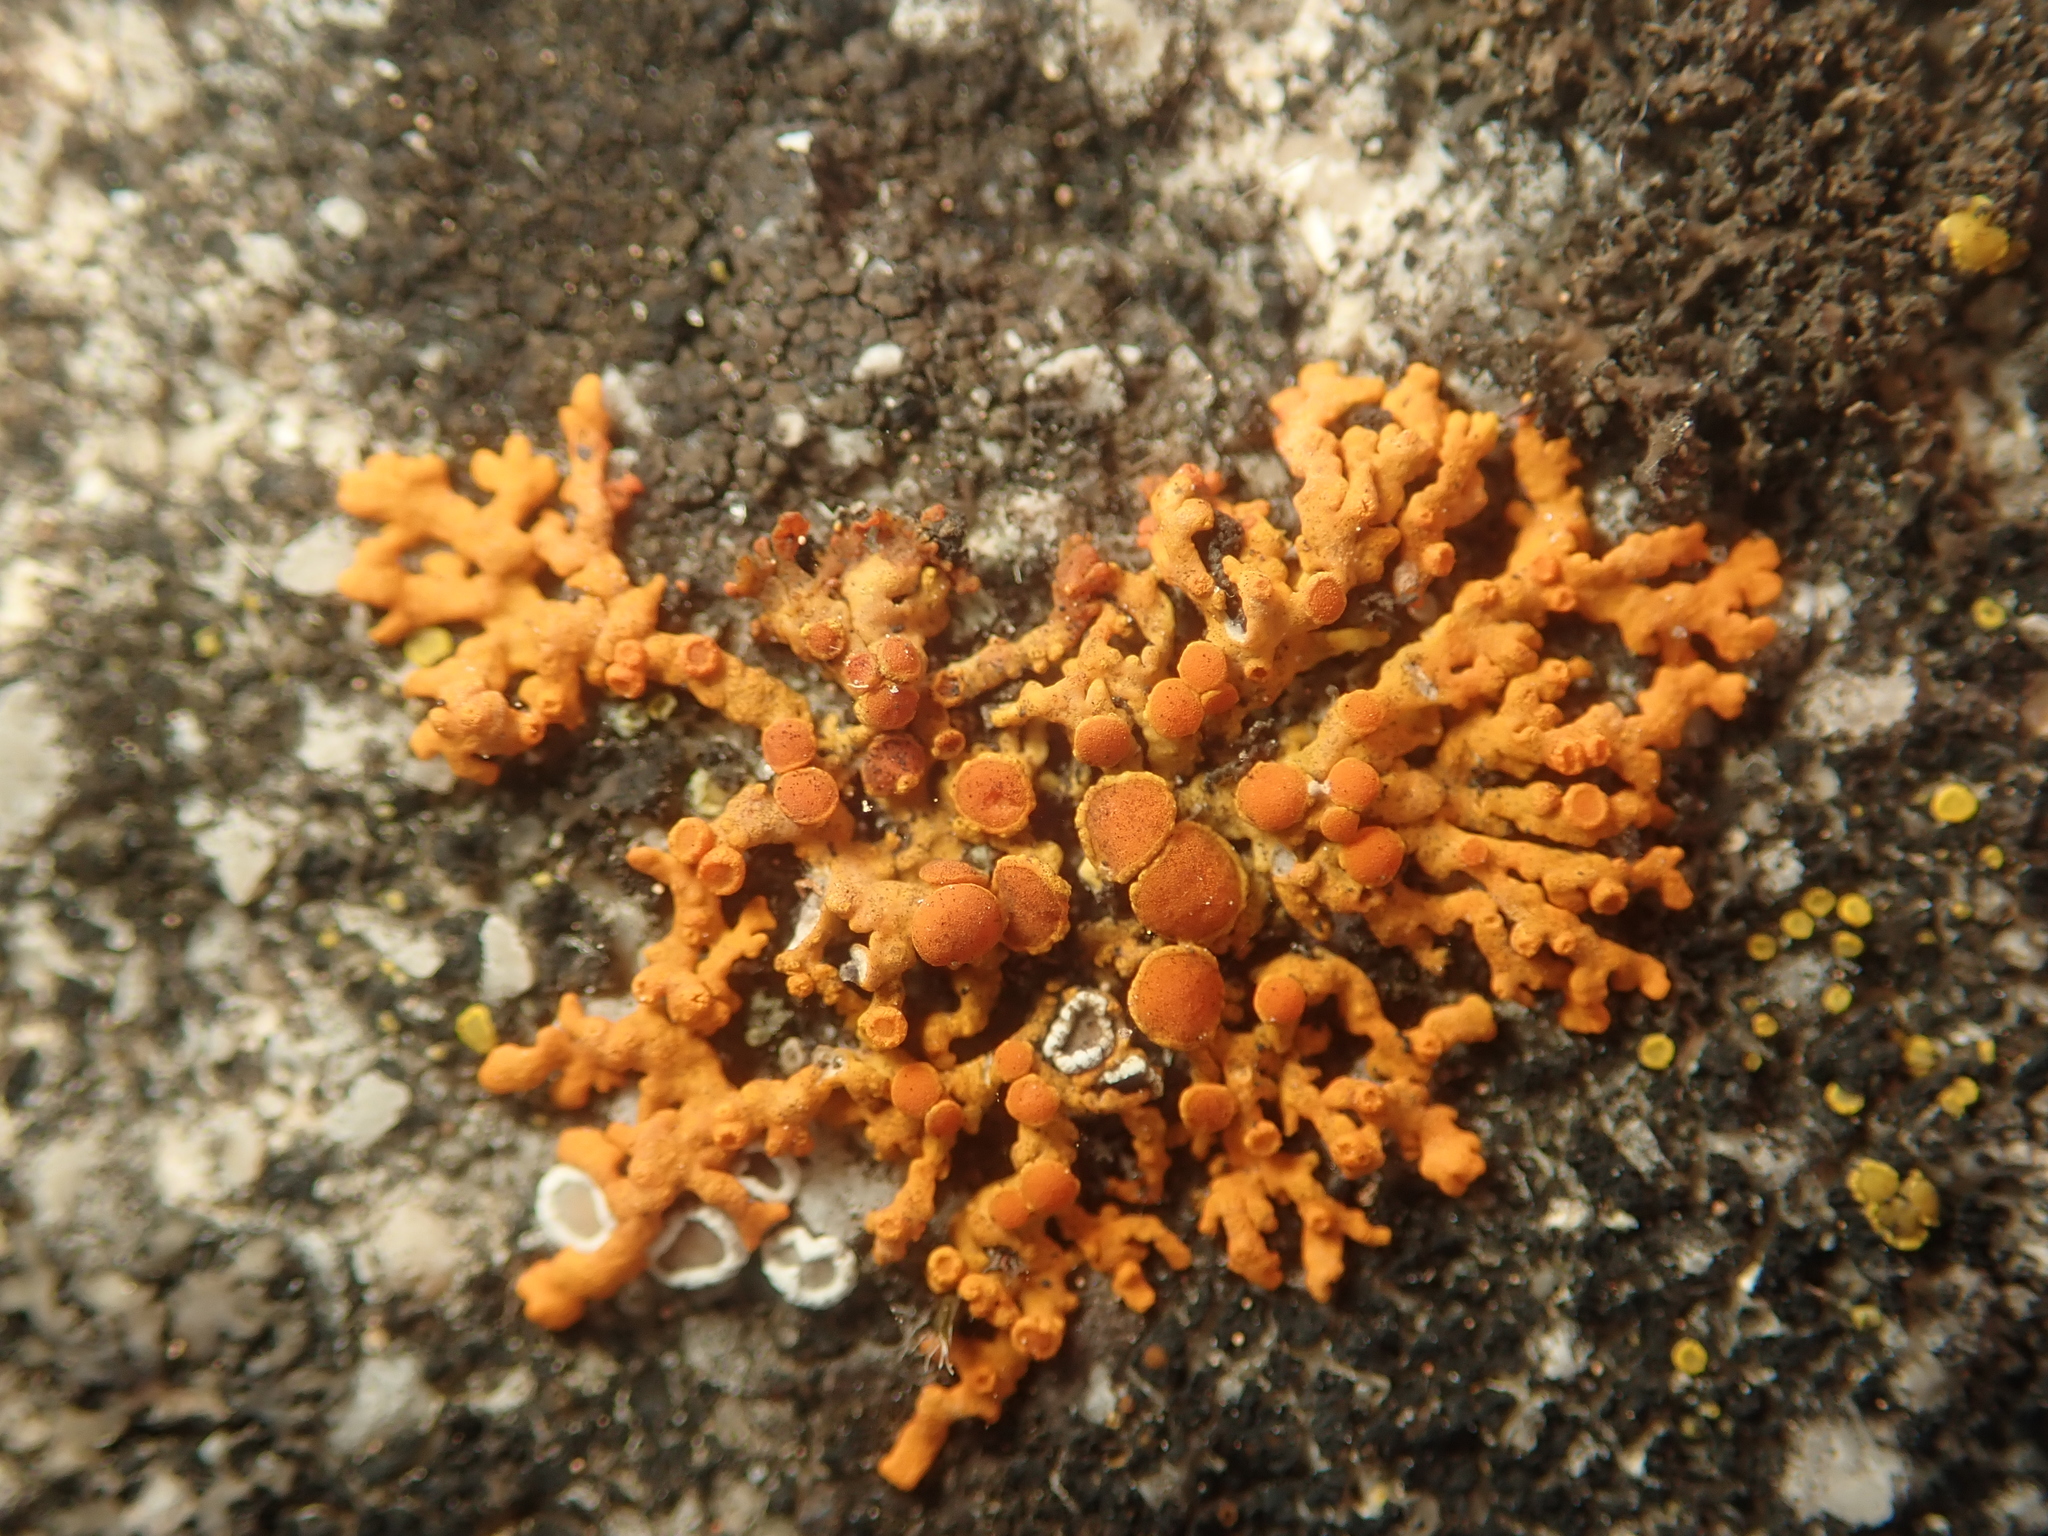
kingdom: Fungi
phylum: Ascomycota
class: Lecanoromycetes
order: Teloschistales
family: Teloschistaceae
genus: Xanthoria
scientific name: Xanthoria elegans
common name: Elegant sunburst lichen
